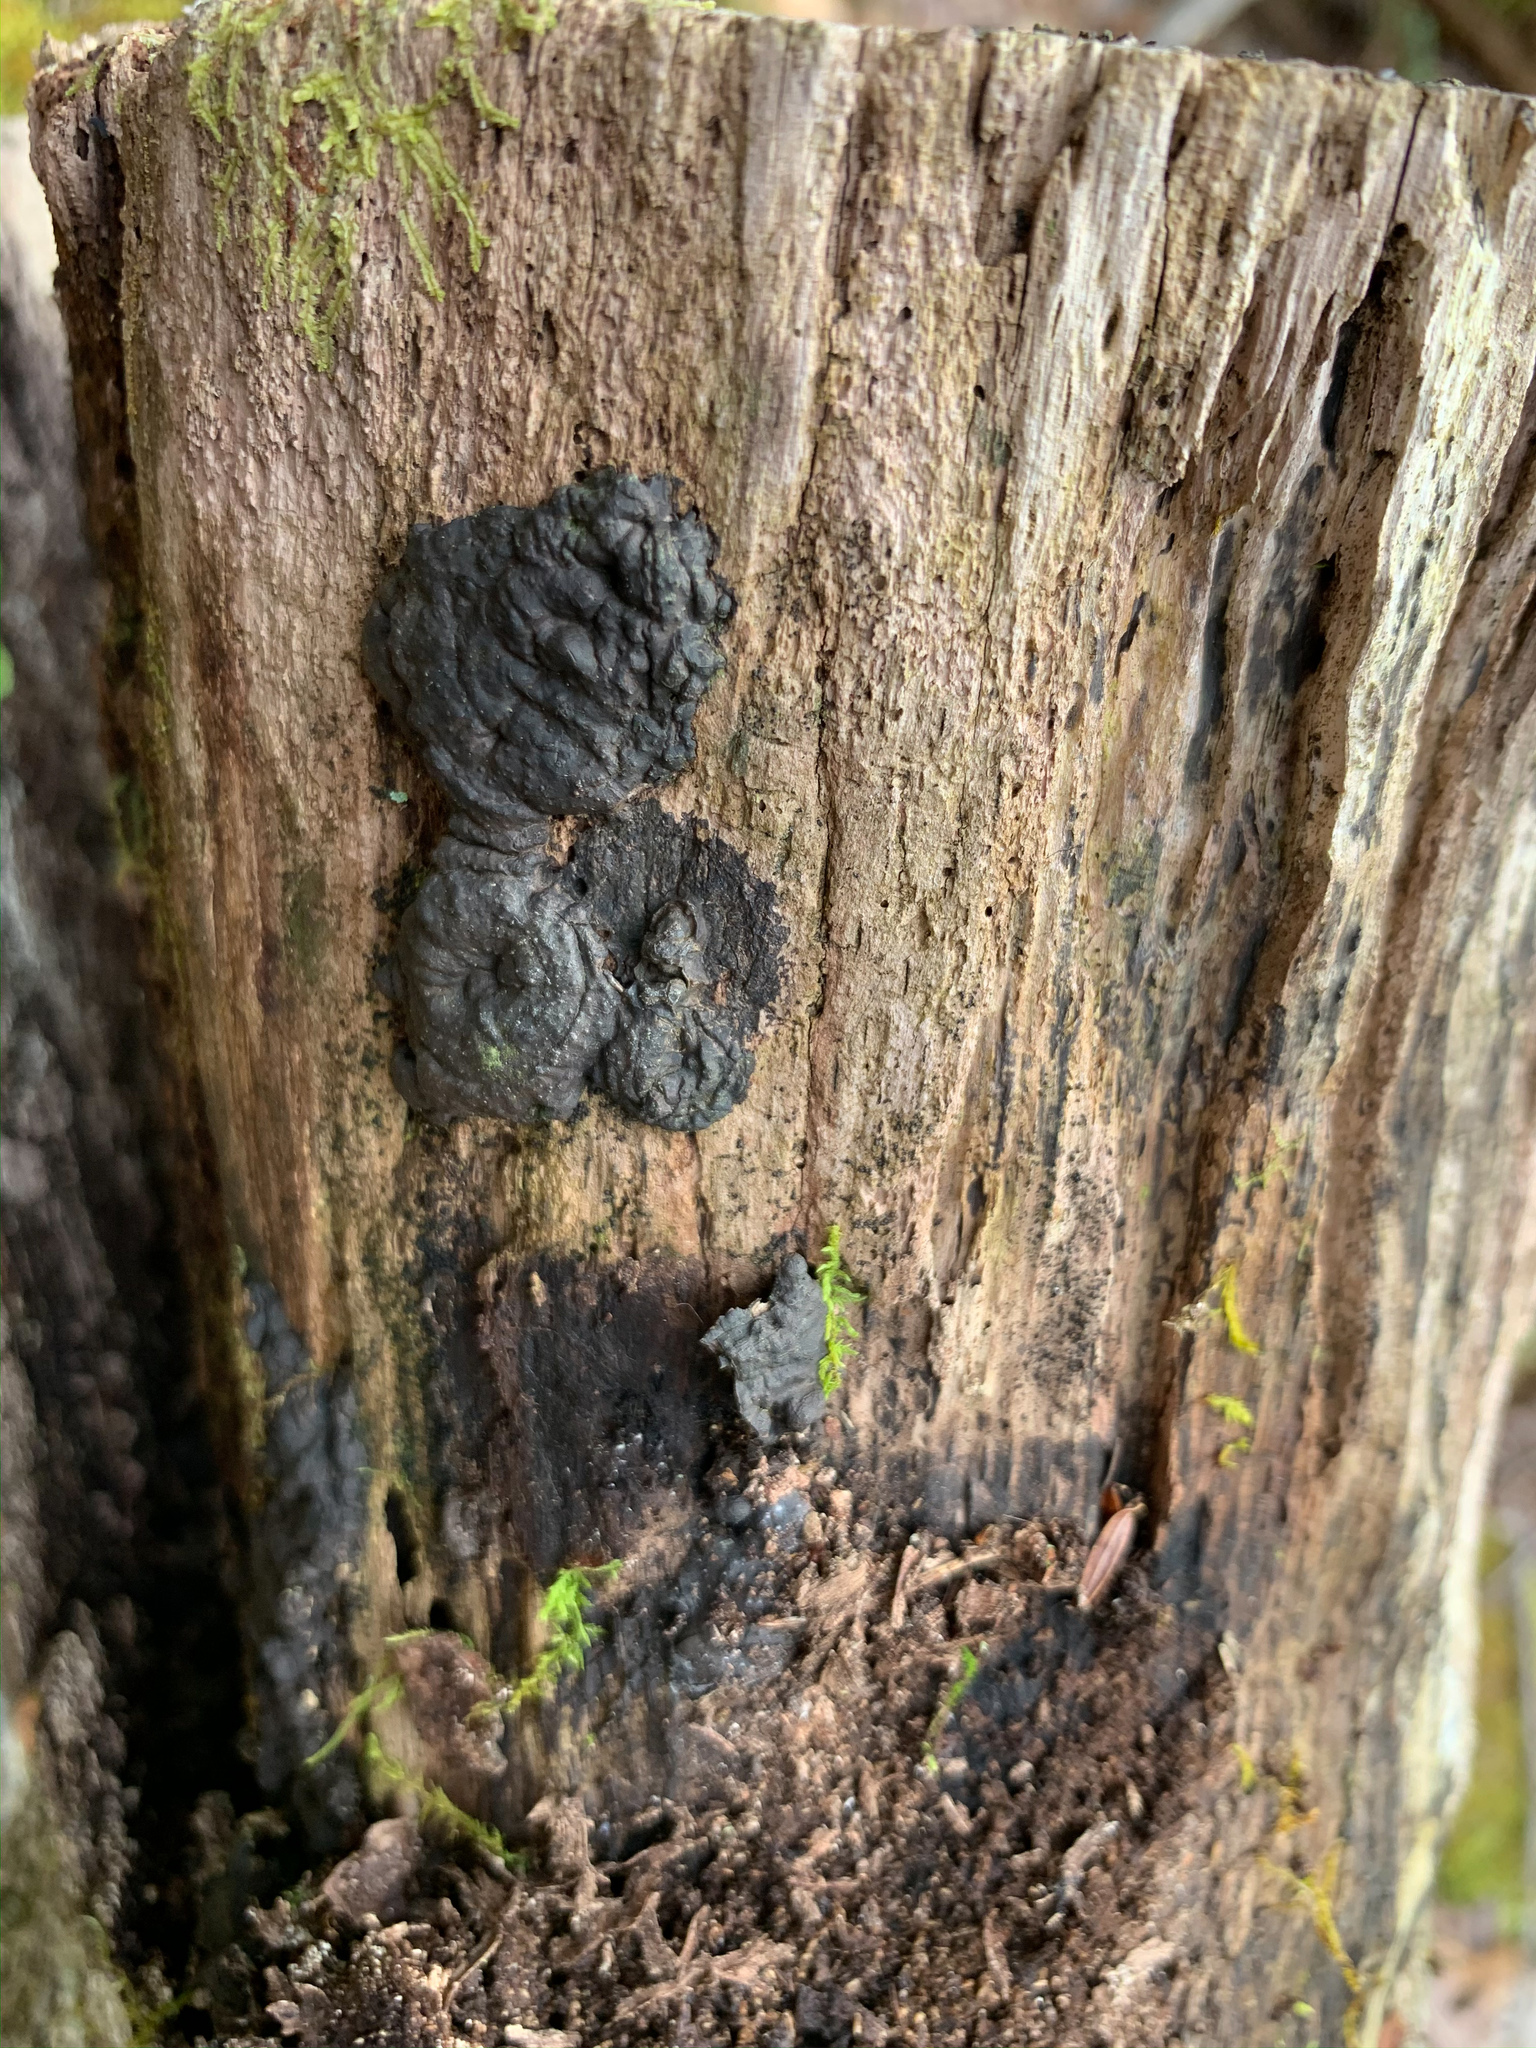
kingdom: Fungi
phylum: Ascomycota
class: Sordariomycetes
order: Xylariales
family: Xylariaceae
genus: Kretzschmaria
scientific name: Kretzschmaria deusta
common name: Brittle cinder
